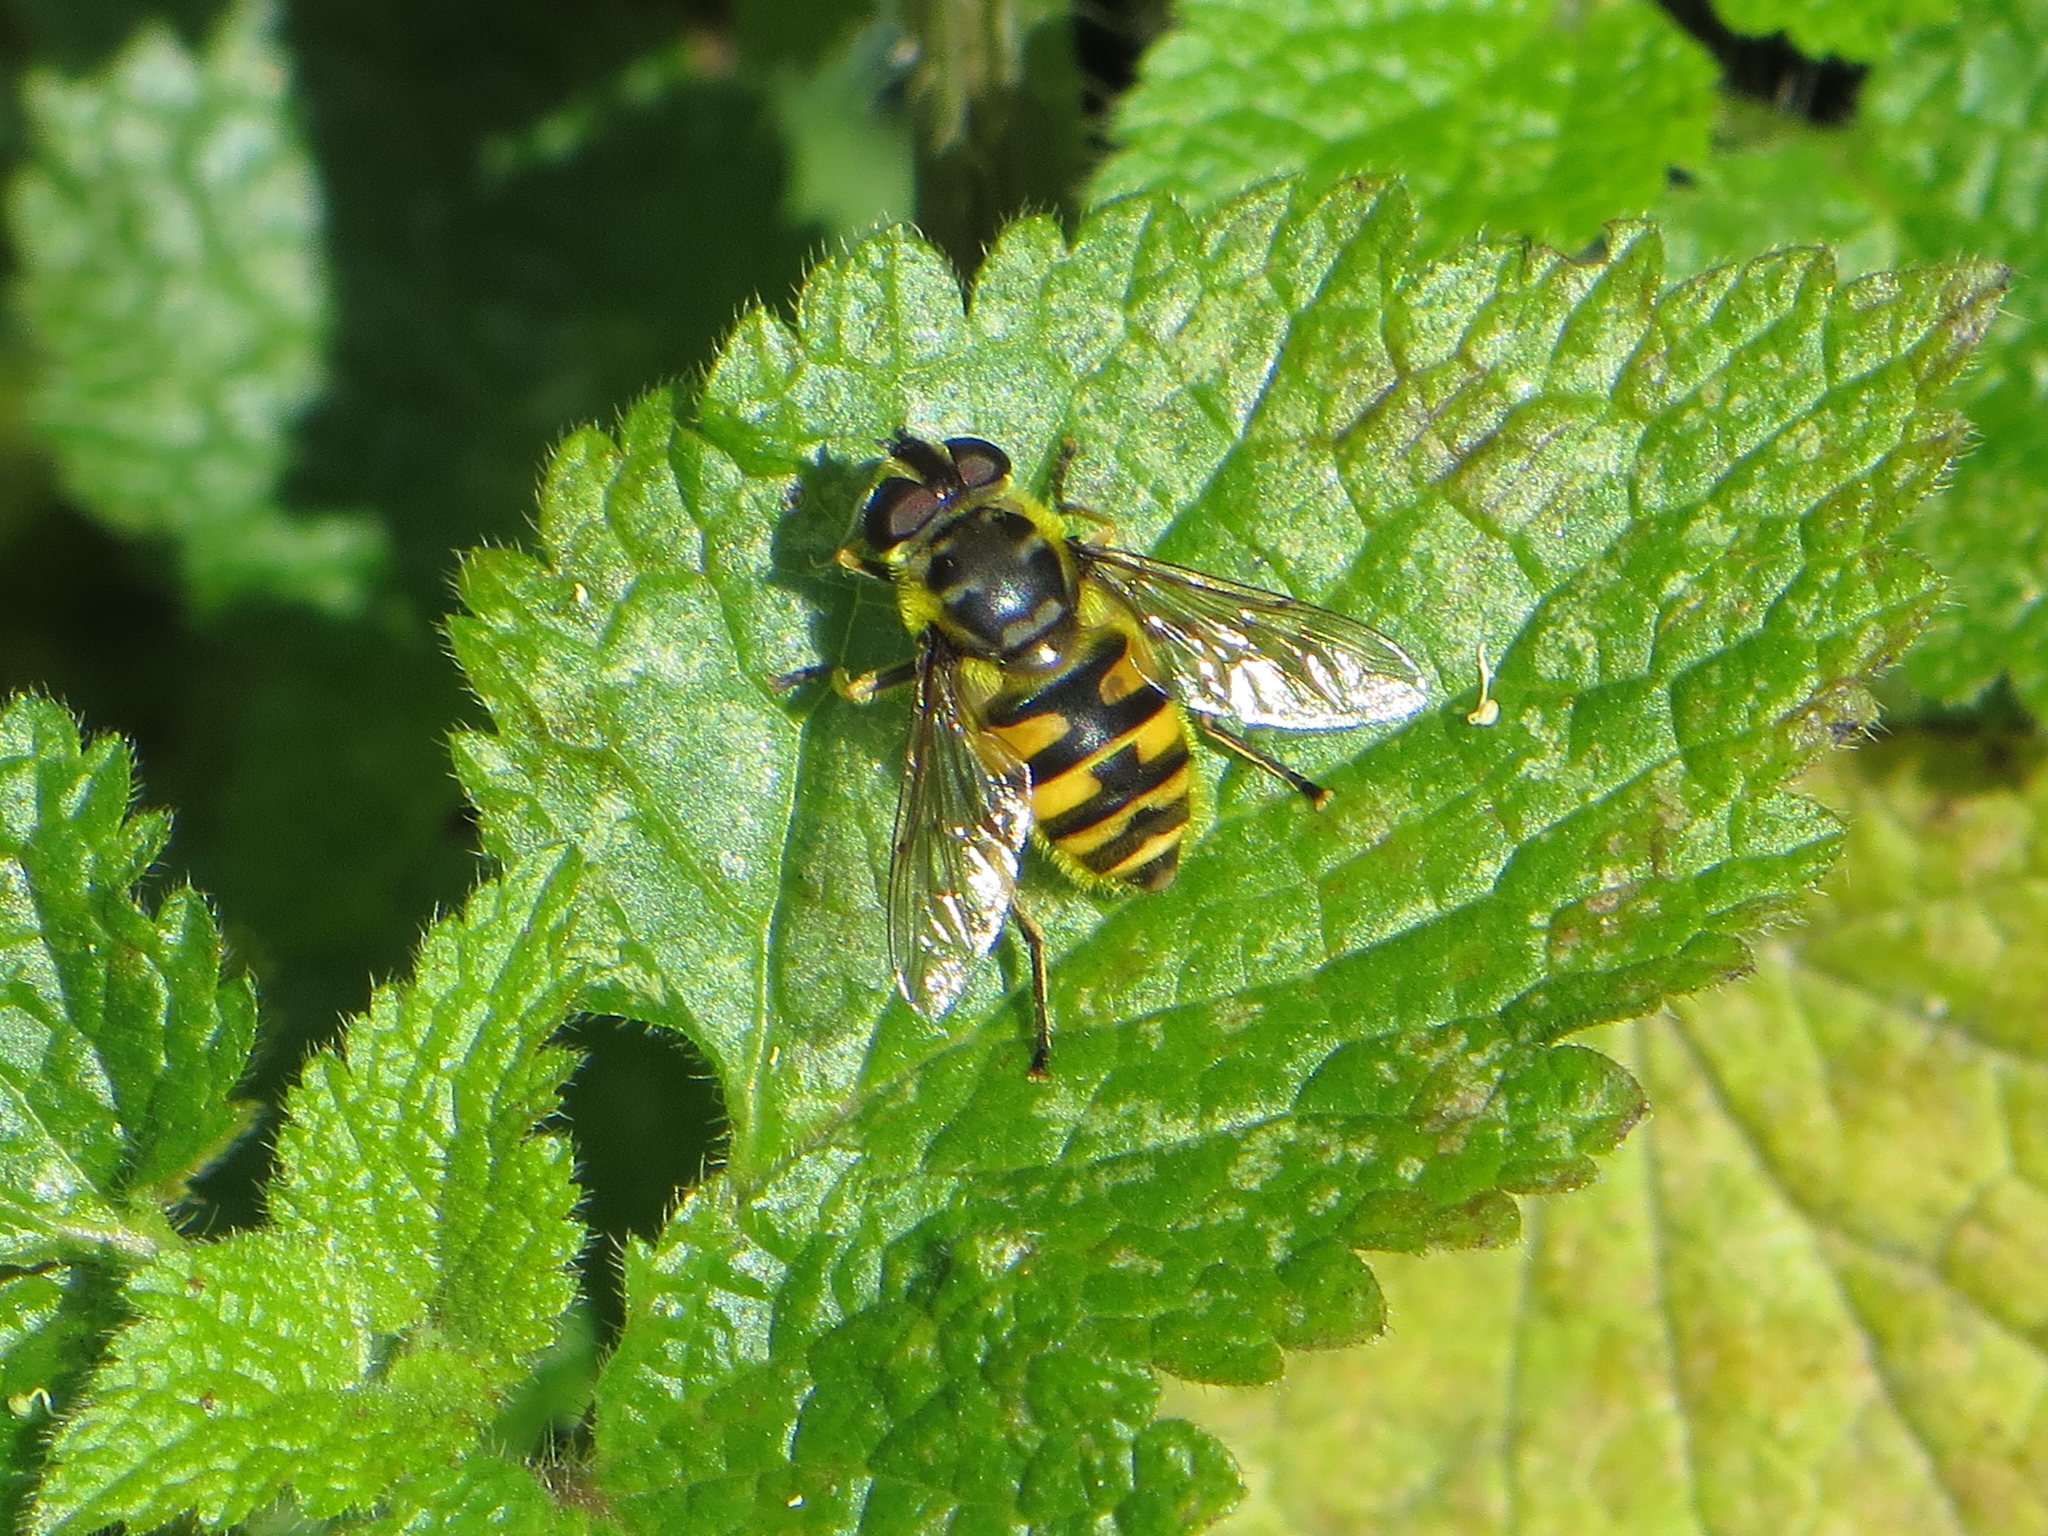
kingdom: Animalia
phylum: Arthropoda
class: Insecta
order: Diptera
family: Syrphidae
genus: Myathropa
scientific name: Myathropa florea
